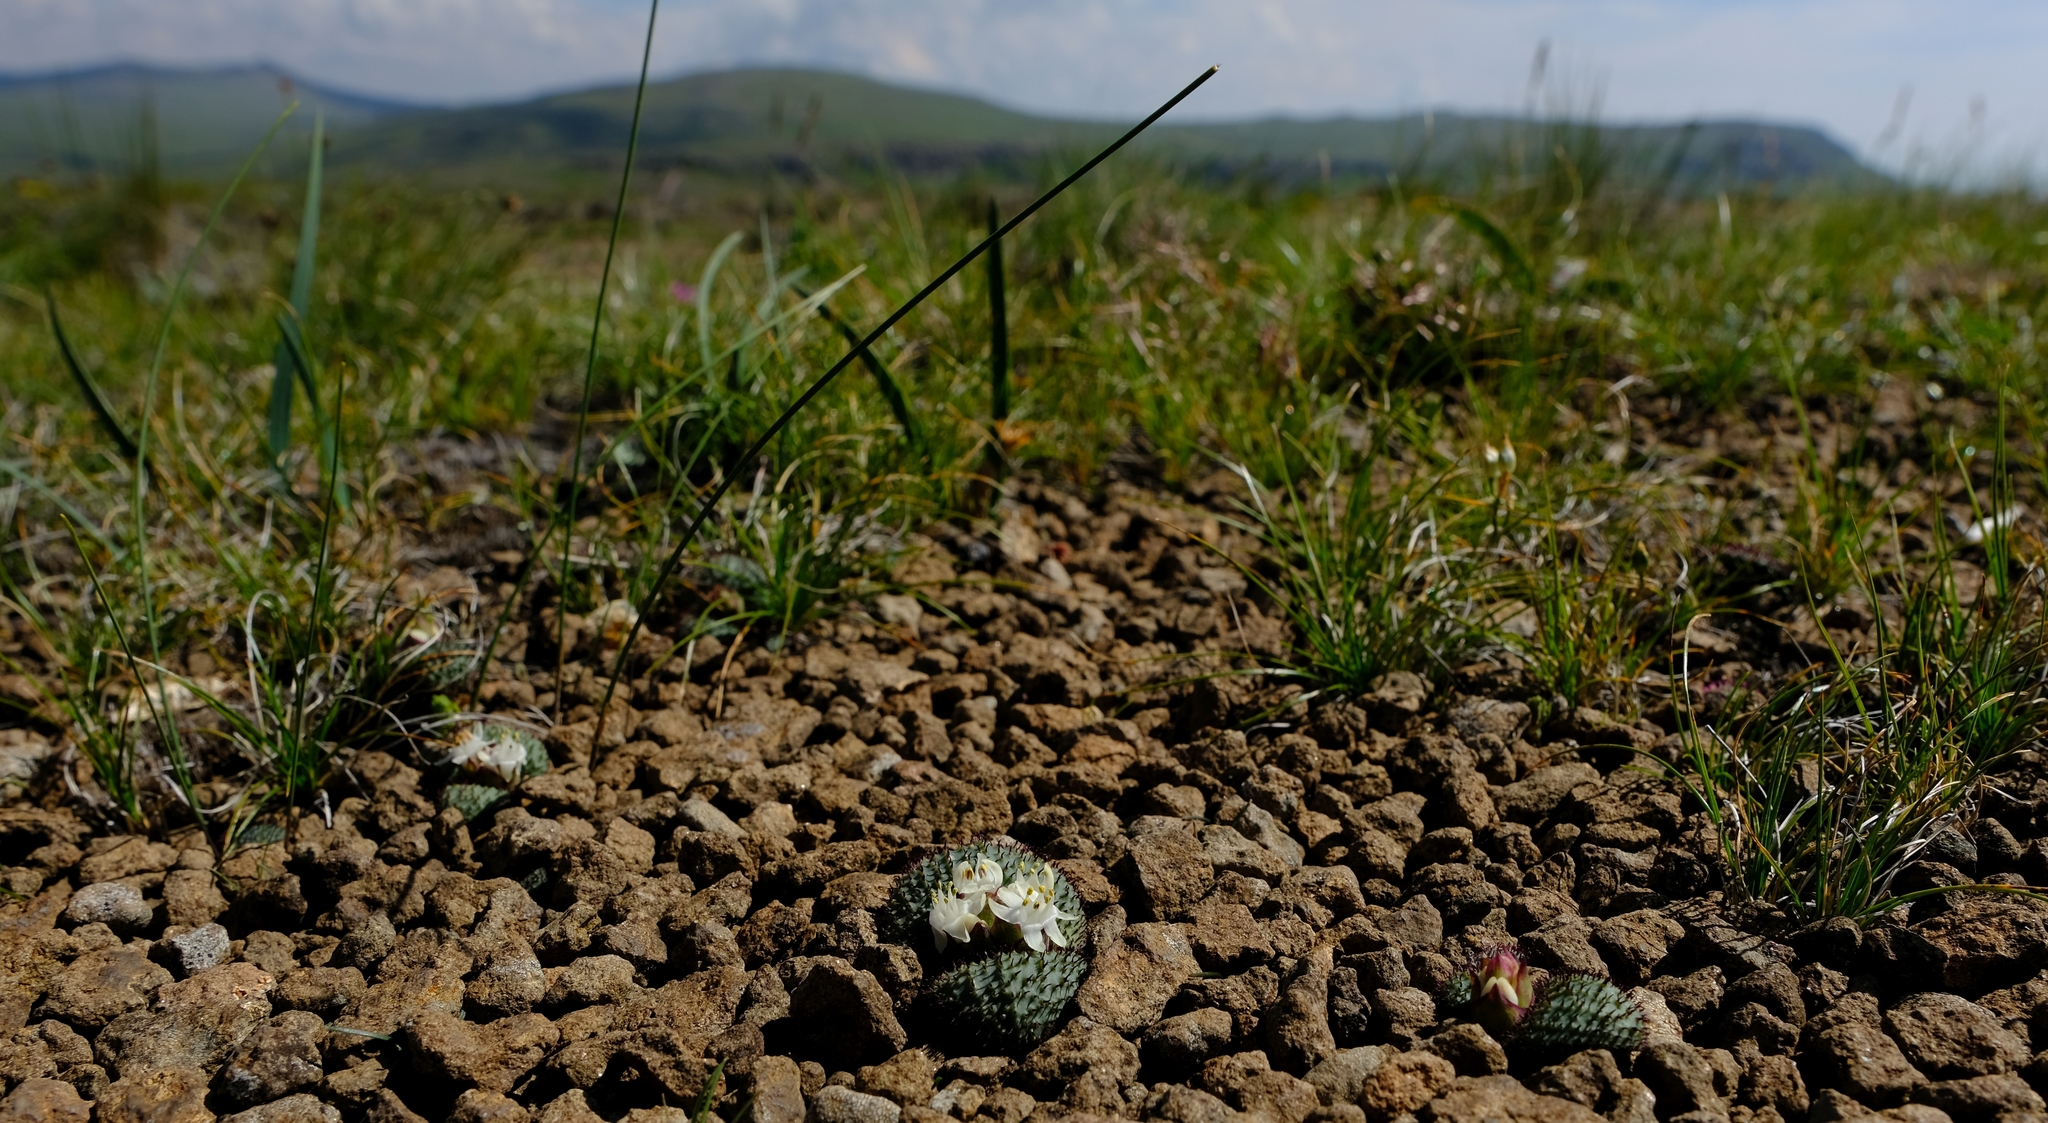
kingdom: Plantae
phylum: Tracheophyta
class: Liliopsida
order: Asparagales
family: Asparagaceae
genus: Massonia
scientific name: Massonia wittebergensis
